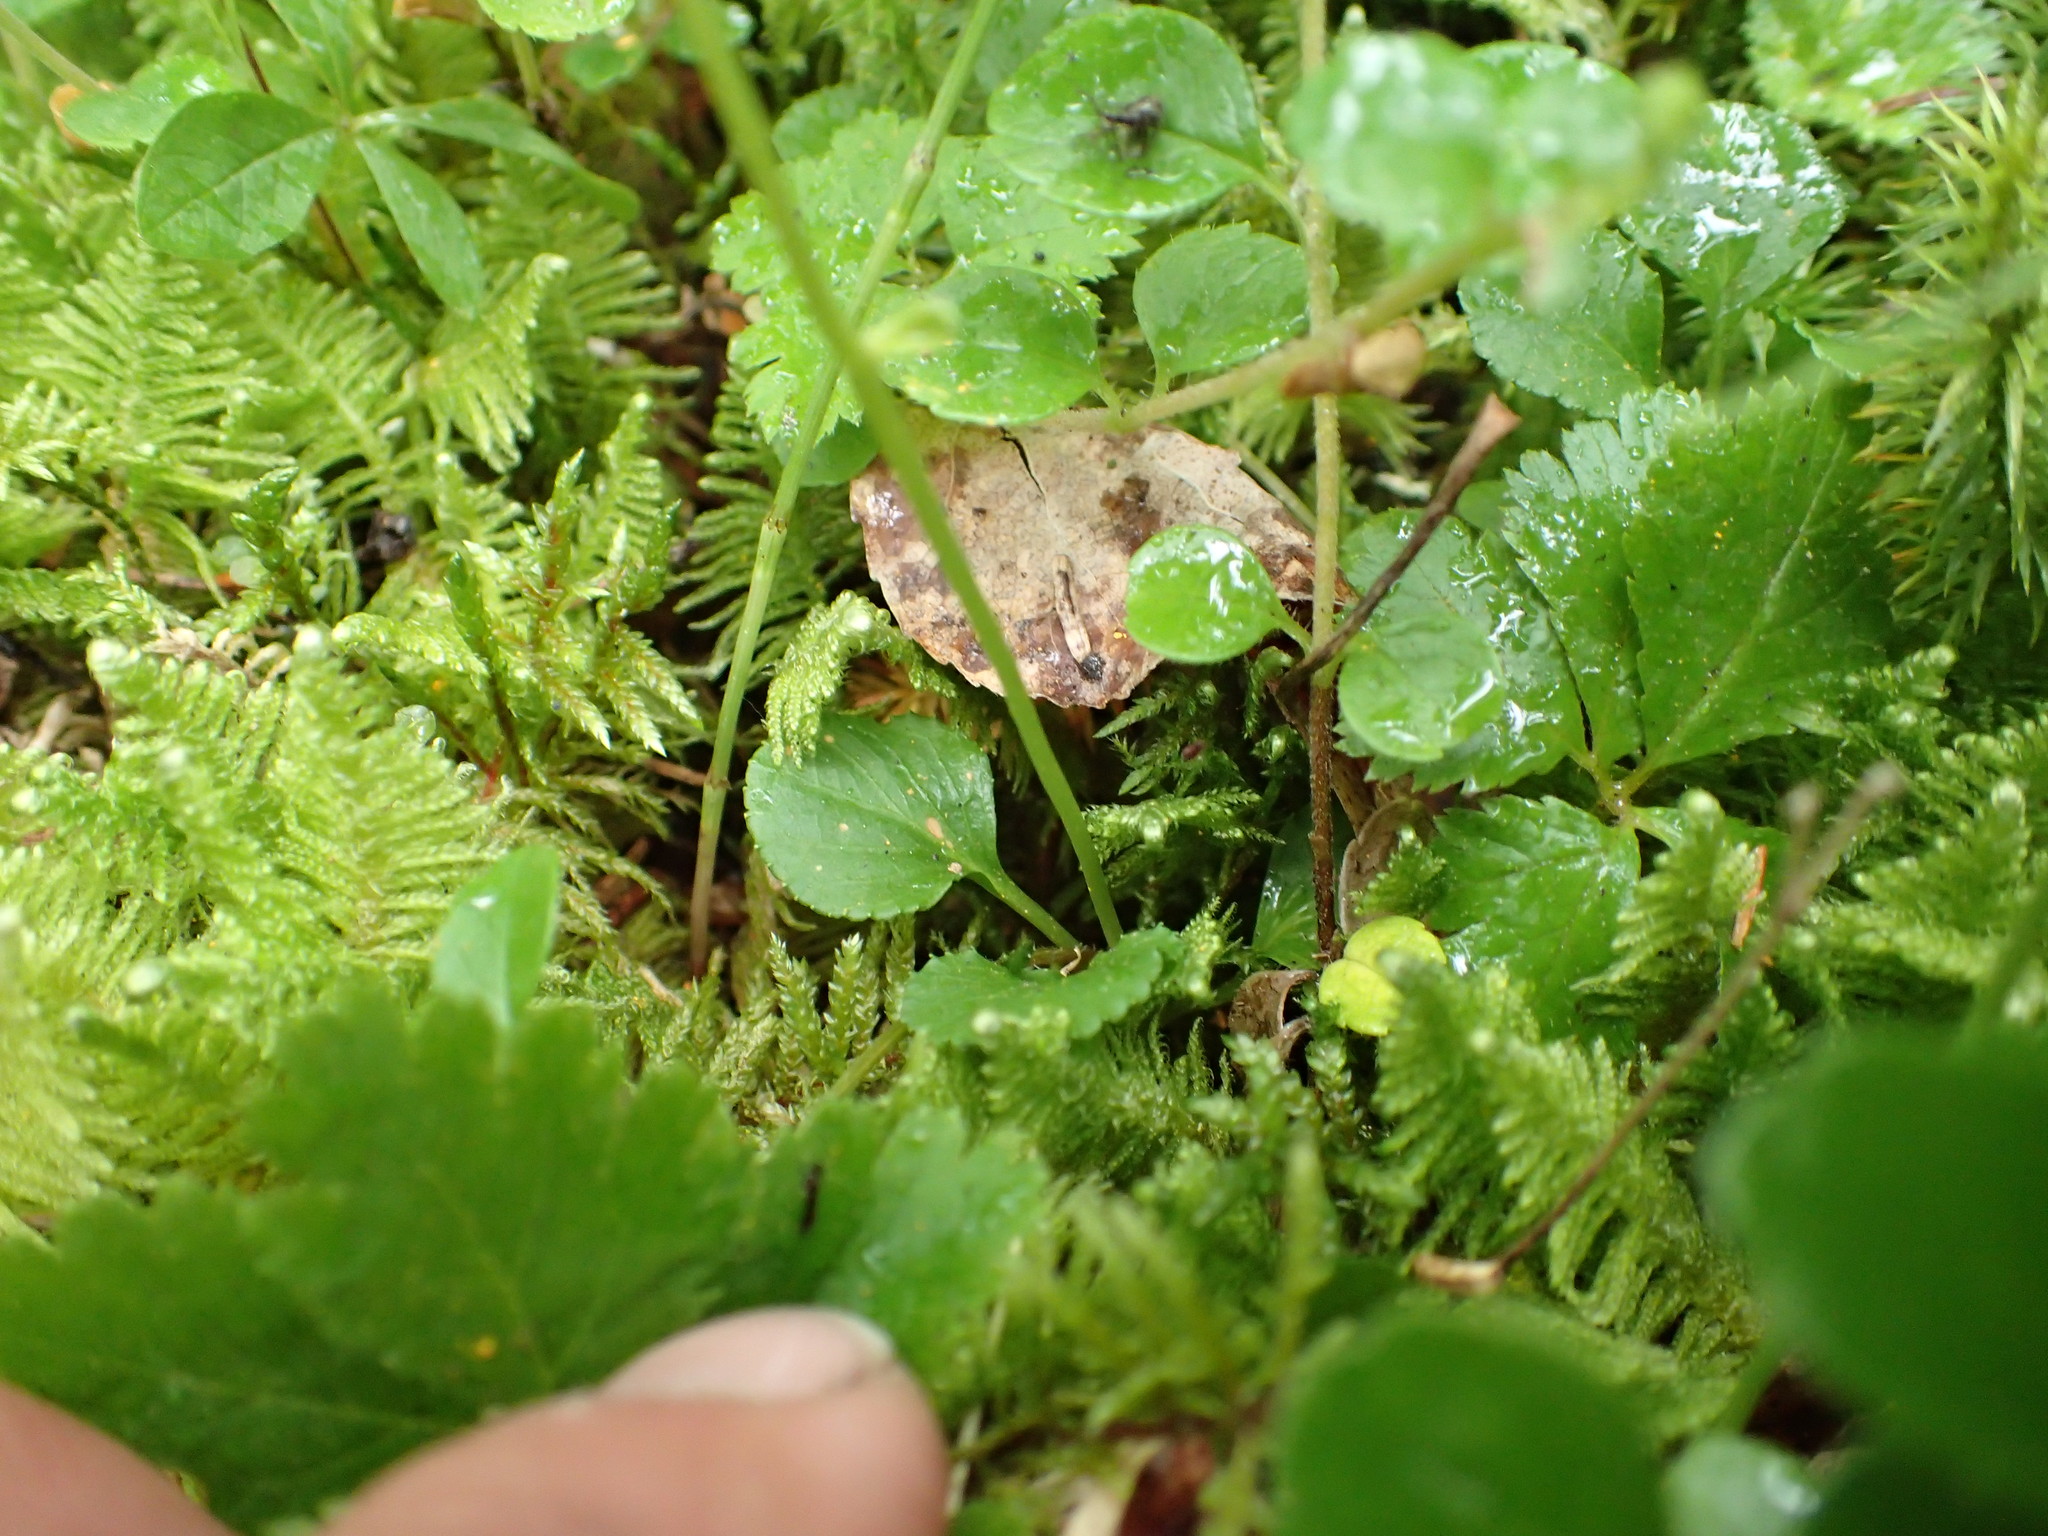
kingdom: Plantae
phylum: Tracheophyta
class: Magnoliopsida
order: Ericales
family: Ericaceae
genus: Moneses
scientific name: Moneses uniflora
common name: One-flowered wintergreen
